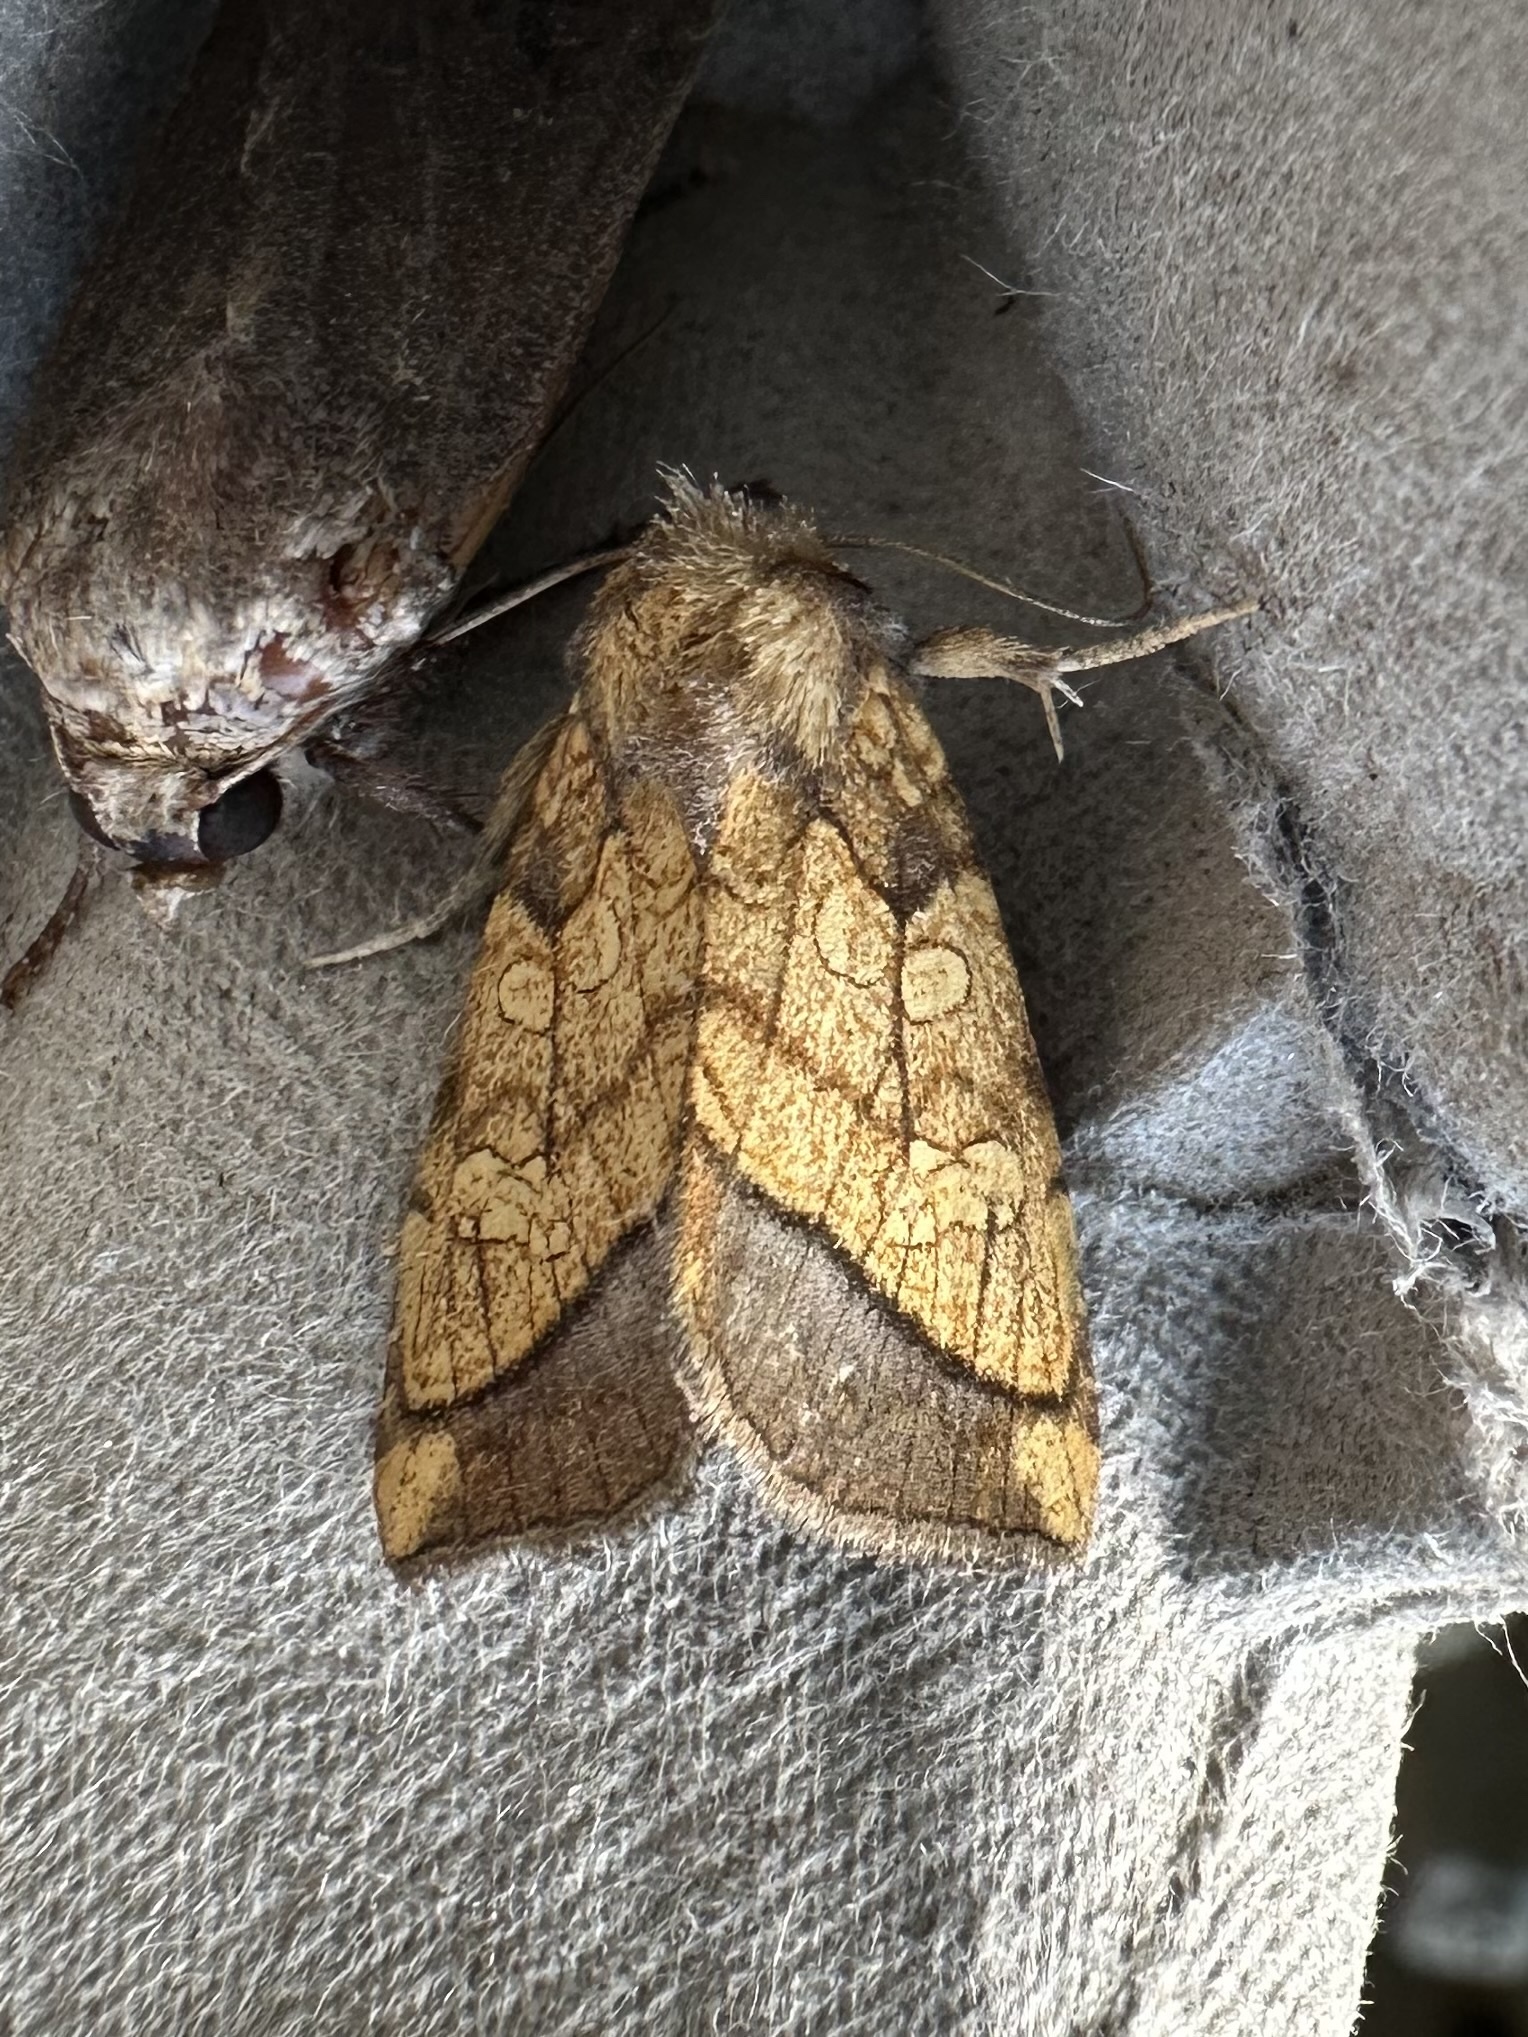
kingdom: Animalia
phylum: Arthropoda
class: Insecta
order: Lepidoptera
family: Noctuidae
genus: Papaipema
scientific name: Papaipema rigida
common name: Rigid sunflower borer moth
